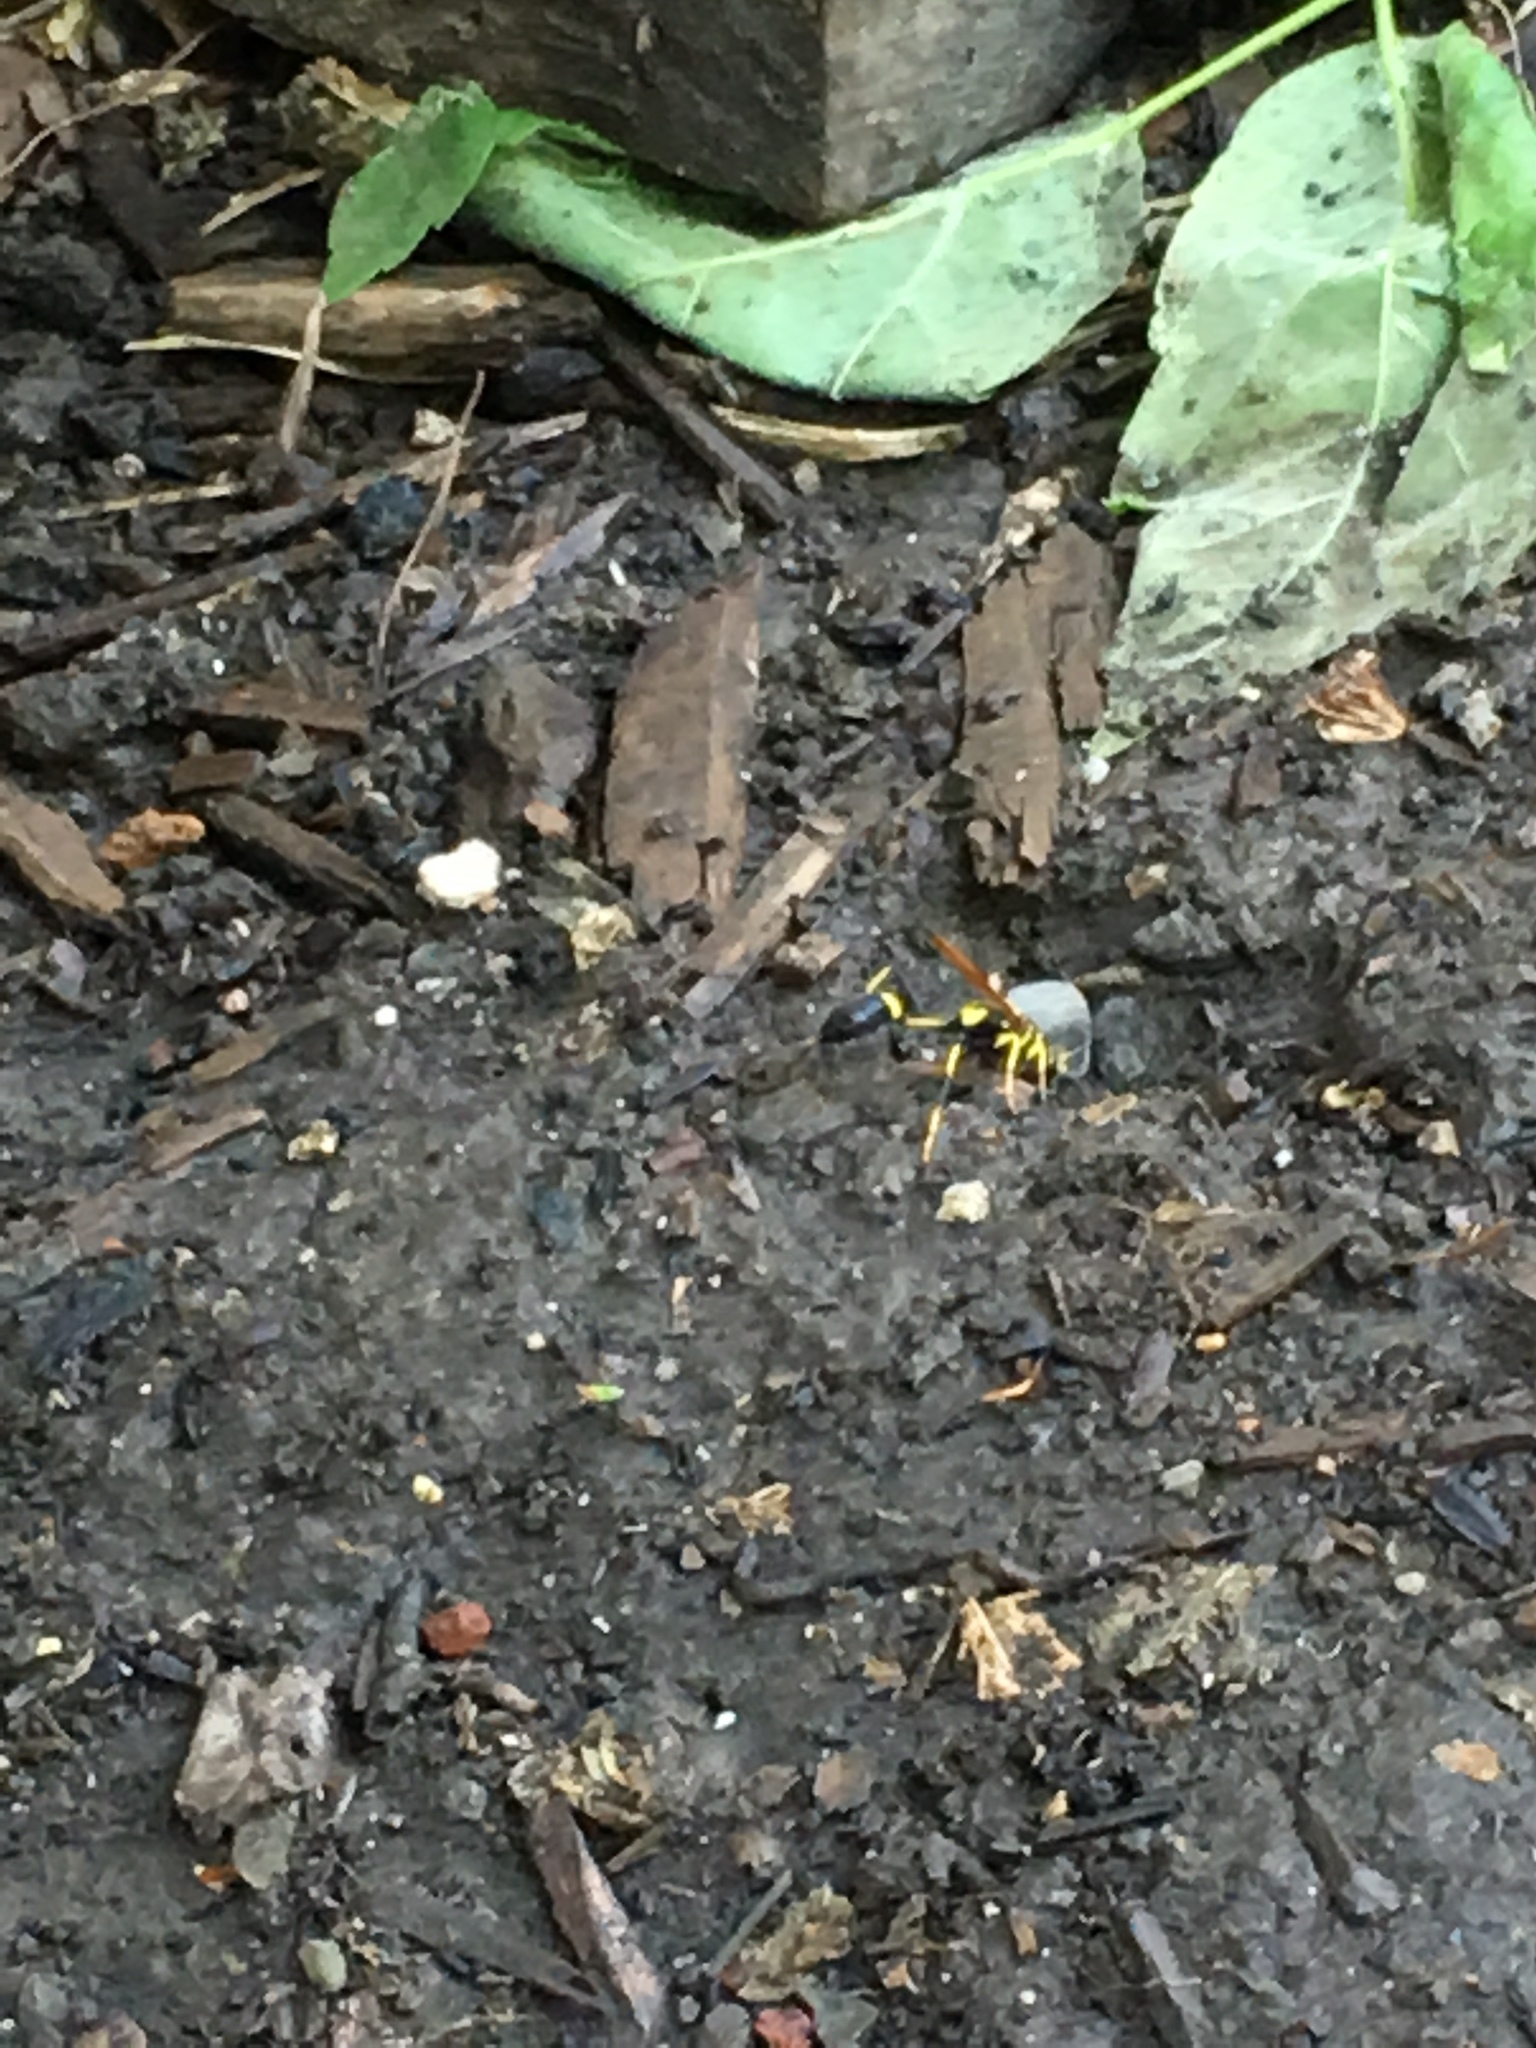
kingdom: Animalia
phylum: Arthropoda
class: Insecta
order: Hymenoptera
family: Sphecidae
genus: Sceliphron
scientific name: Sceliphron caementarium
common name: Mud dauber
